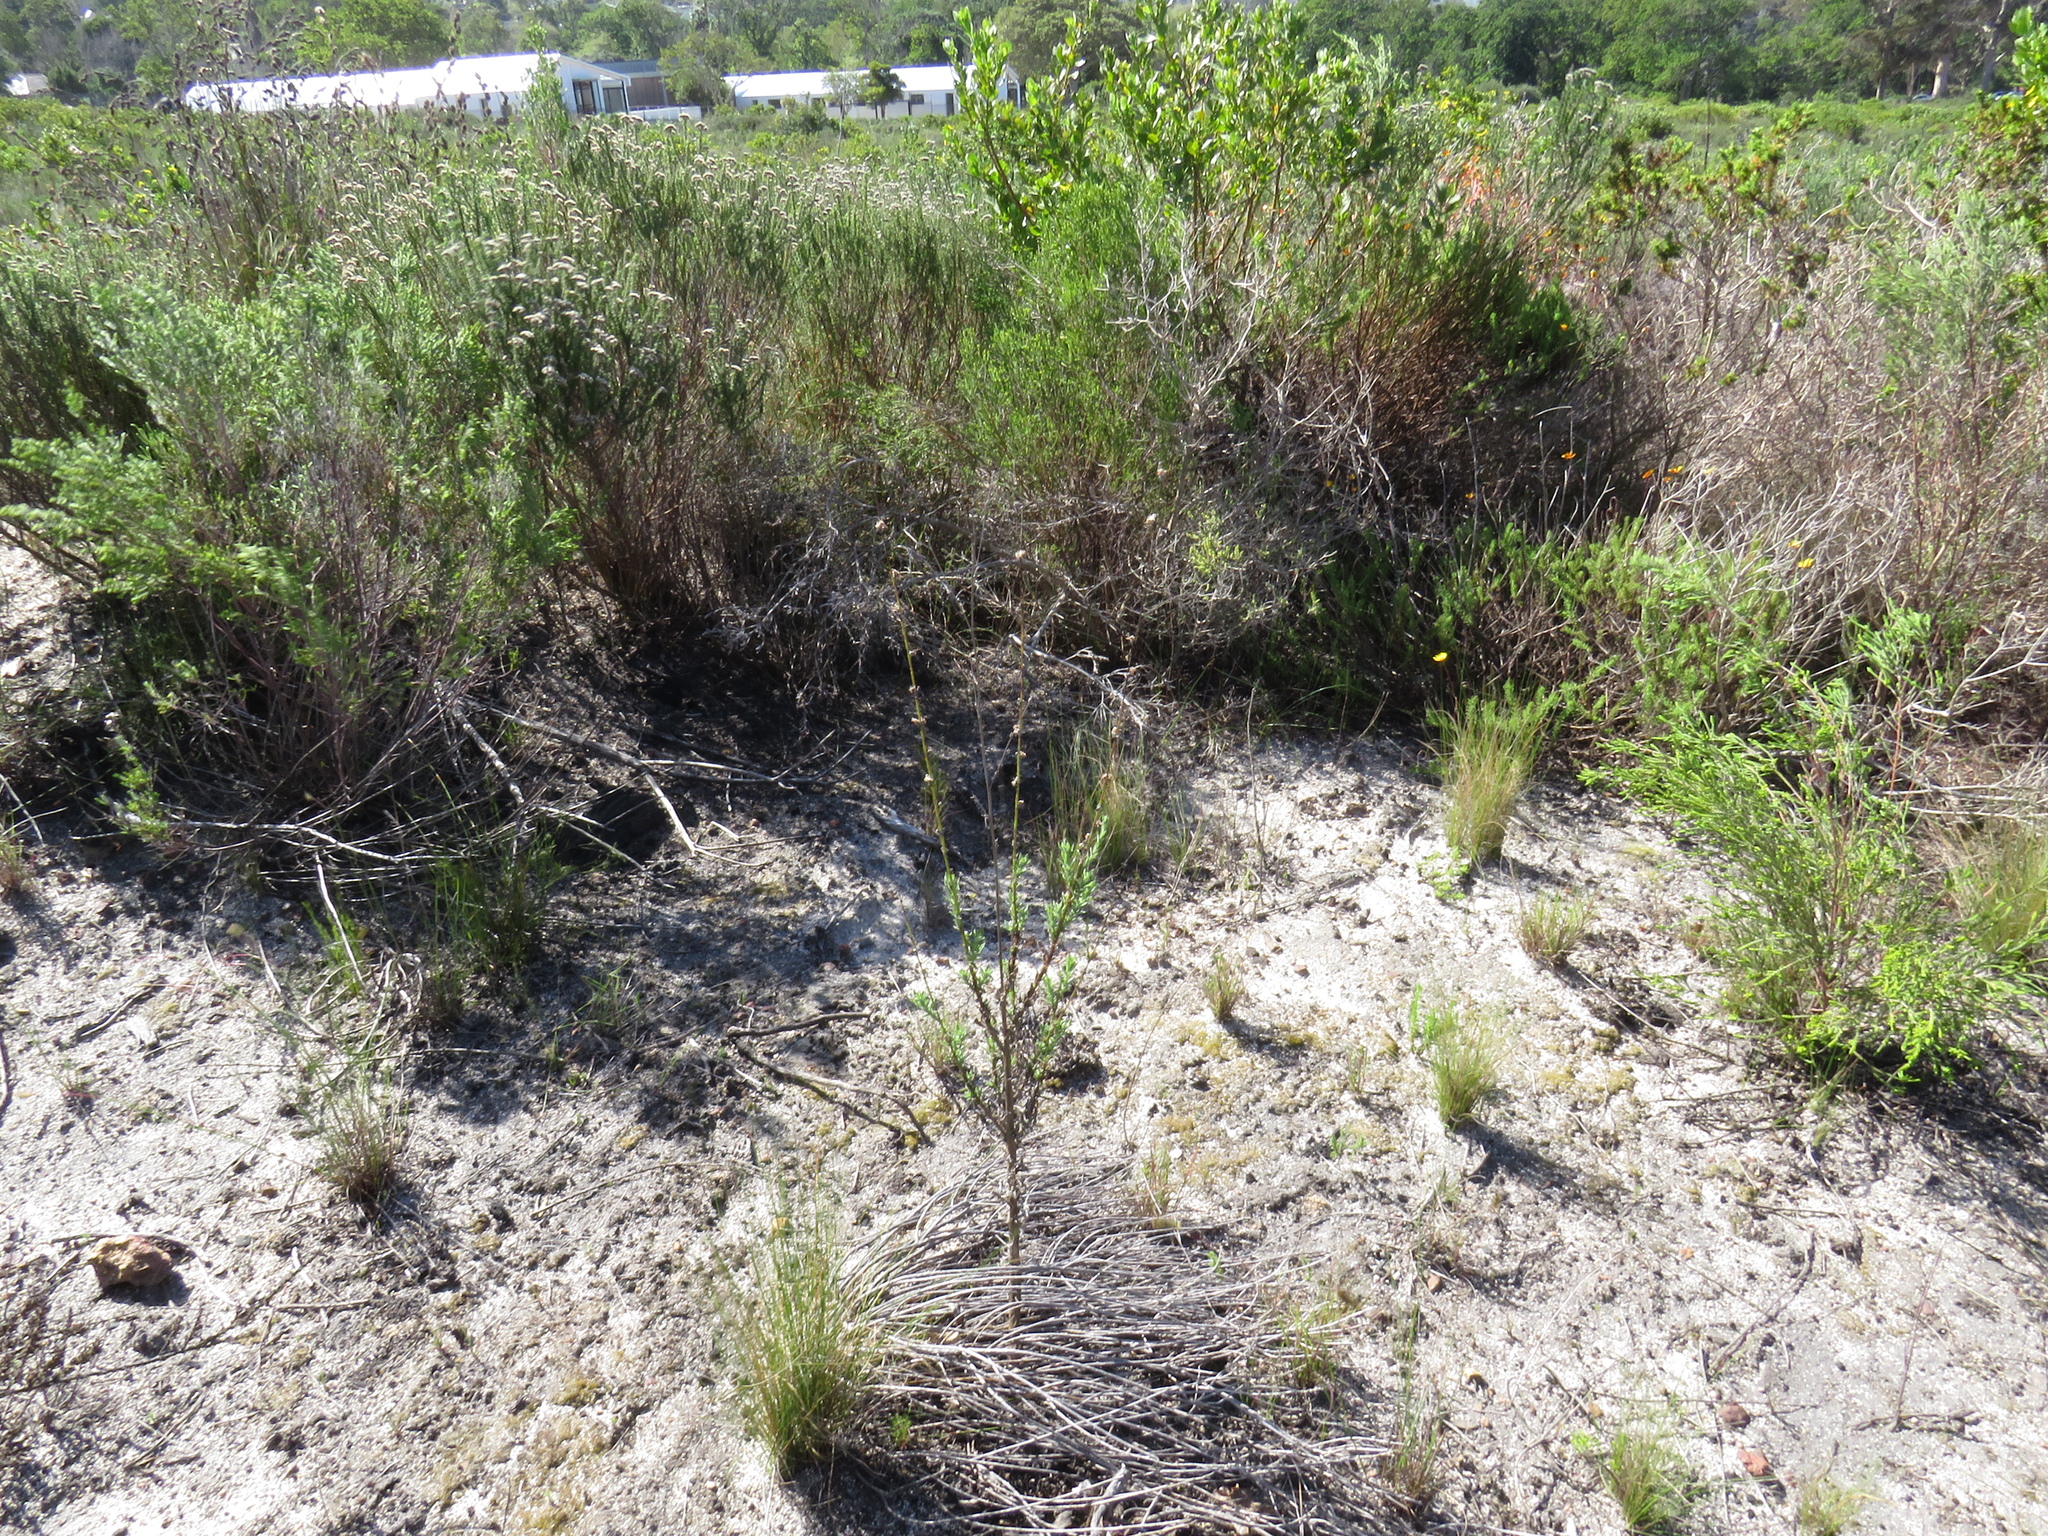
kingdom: Plantae
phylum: Tracheophyta
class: Magnoliopsida
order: Asterales
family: Asteraceae
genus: Senecio
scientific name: Senecio pubigerus
